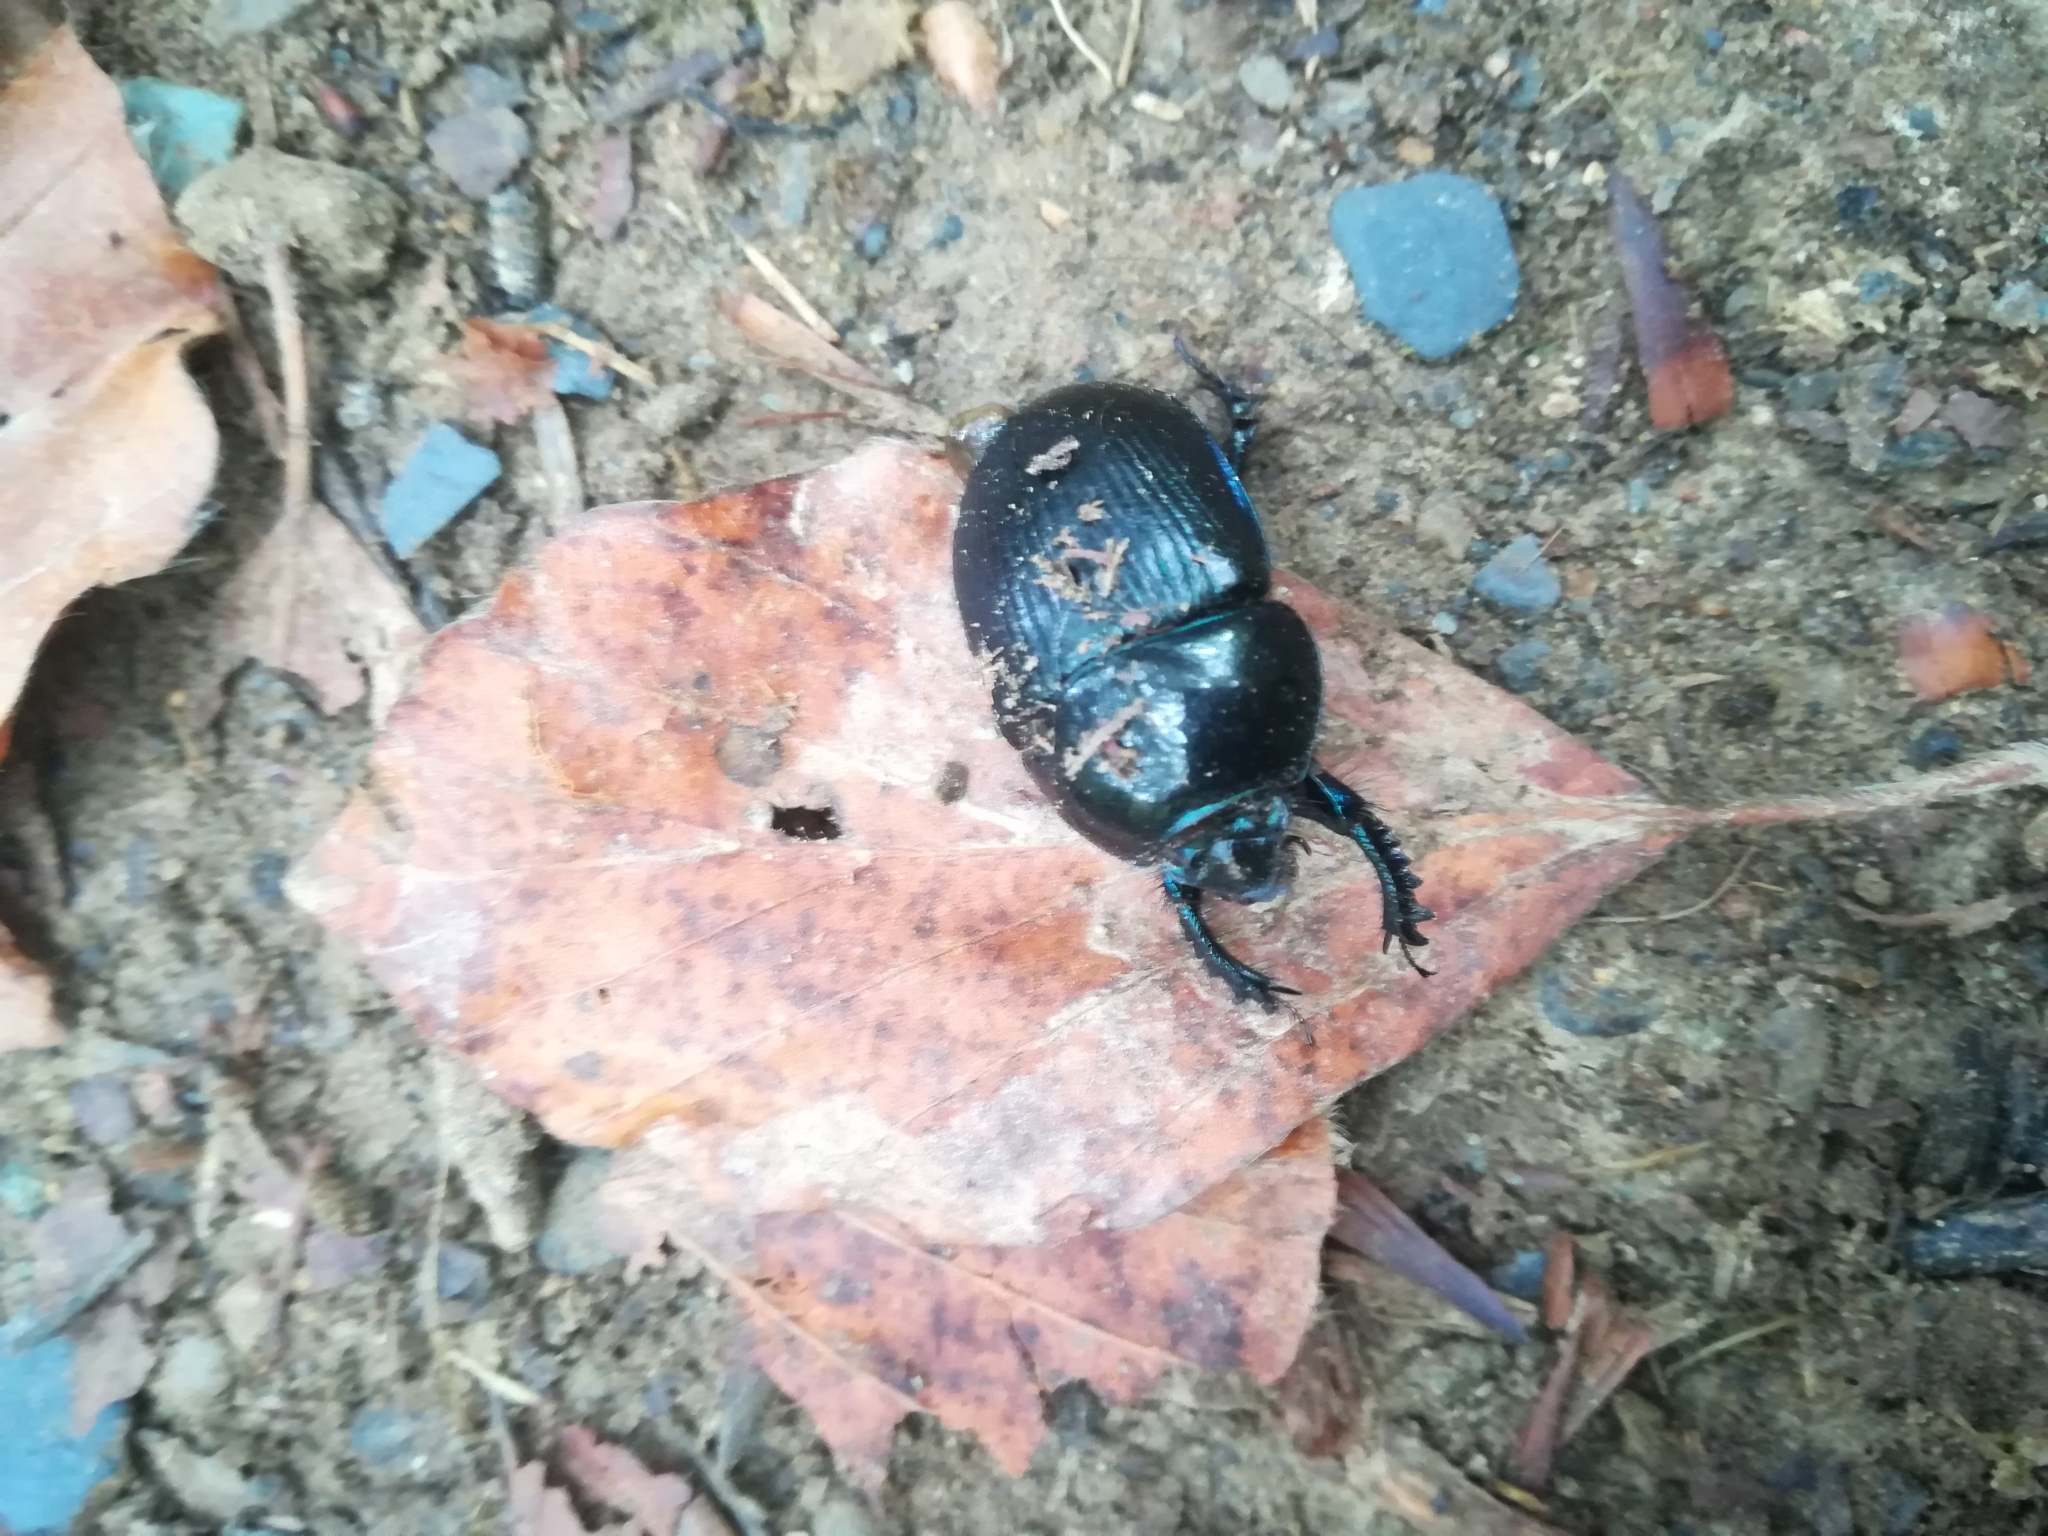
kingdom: Animalia
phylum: Arthropoda
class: Insecta
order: Coleoptera
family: Geotrupidae
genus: Anoplotrupes
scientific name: Anoplotrupes stercorosus
